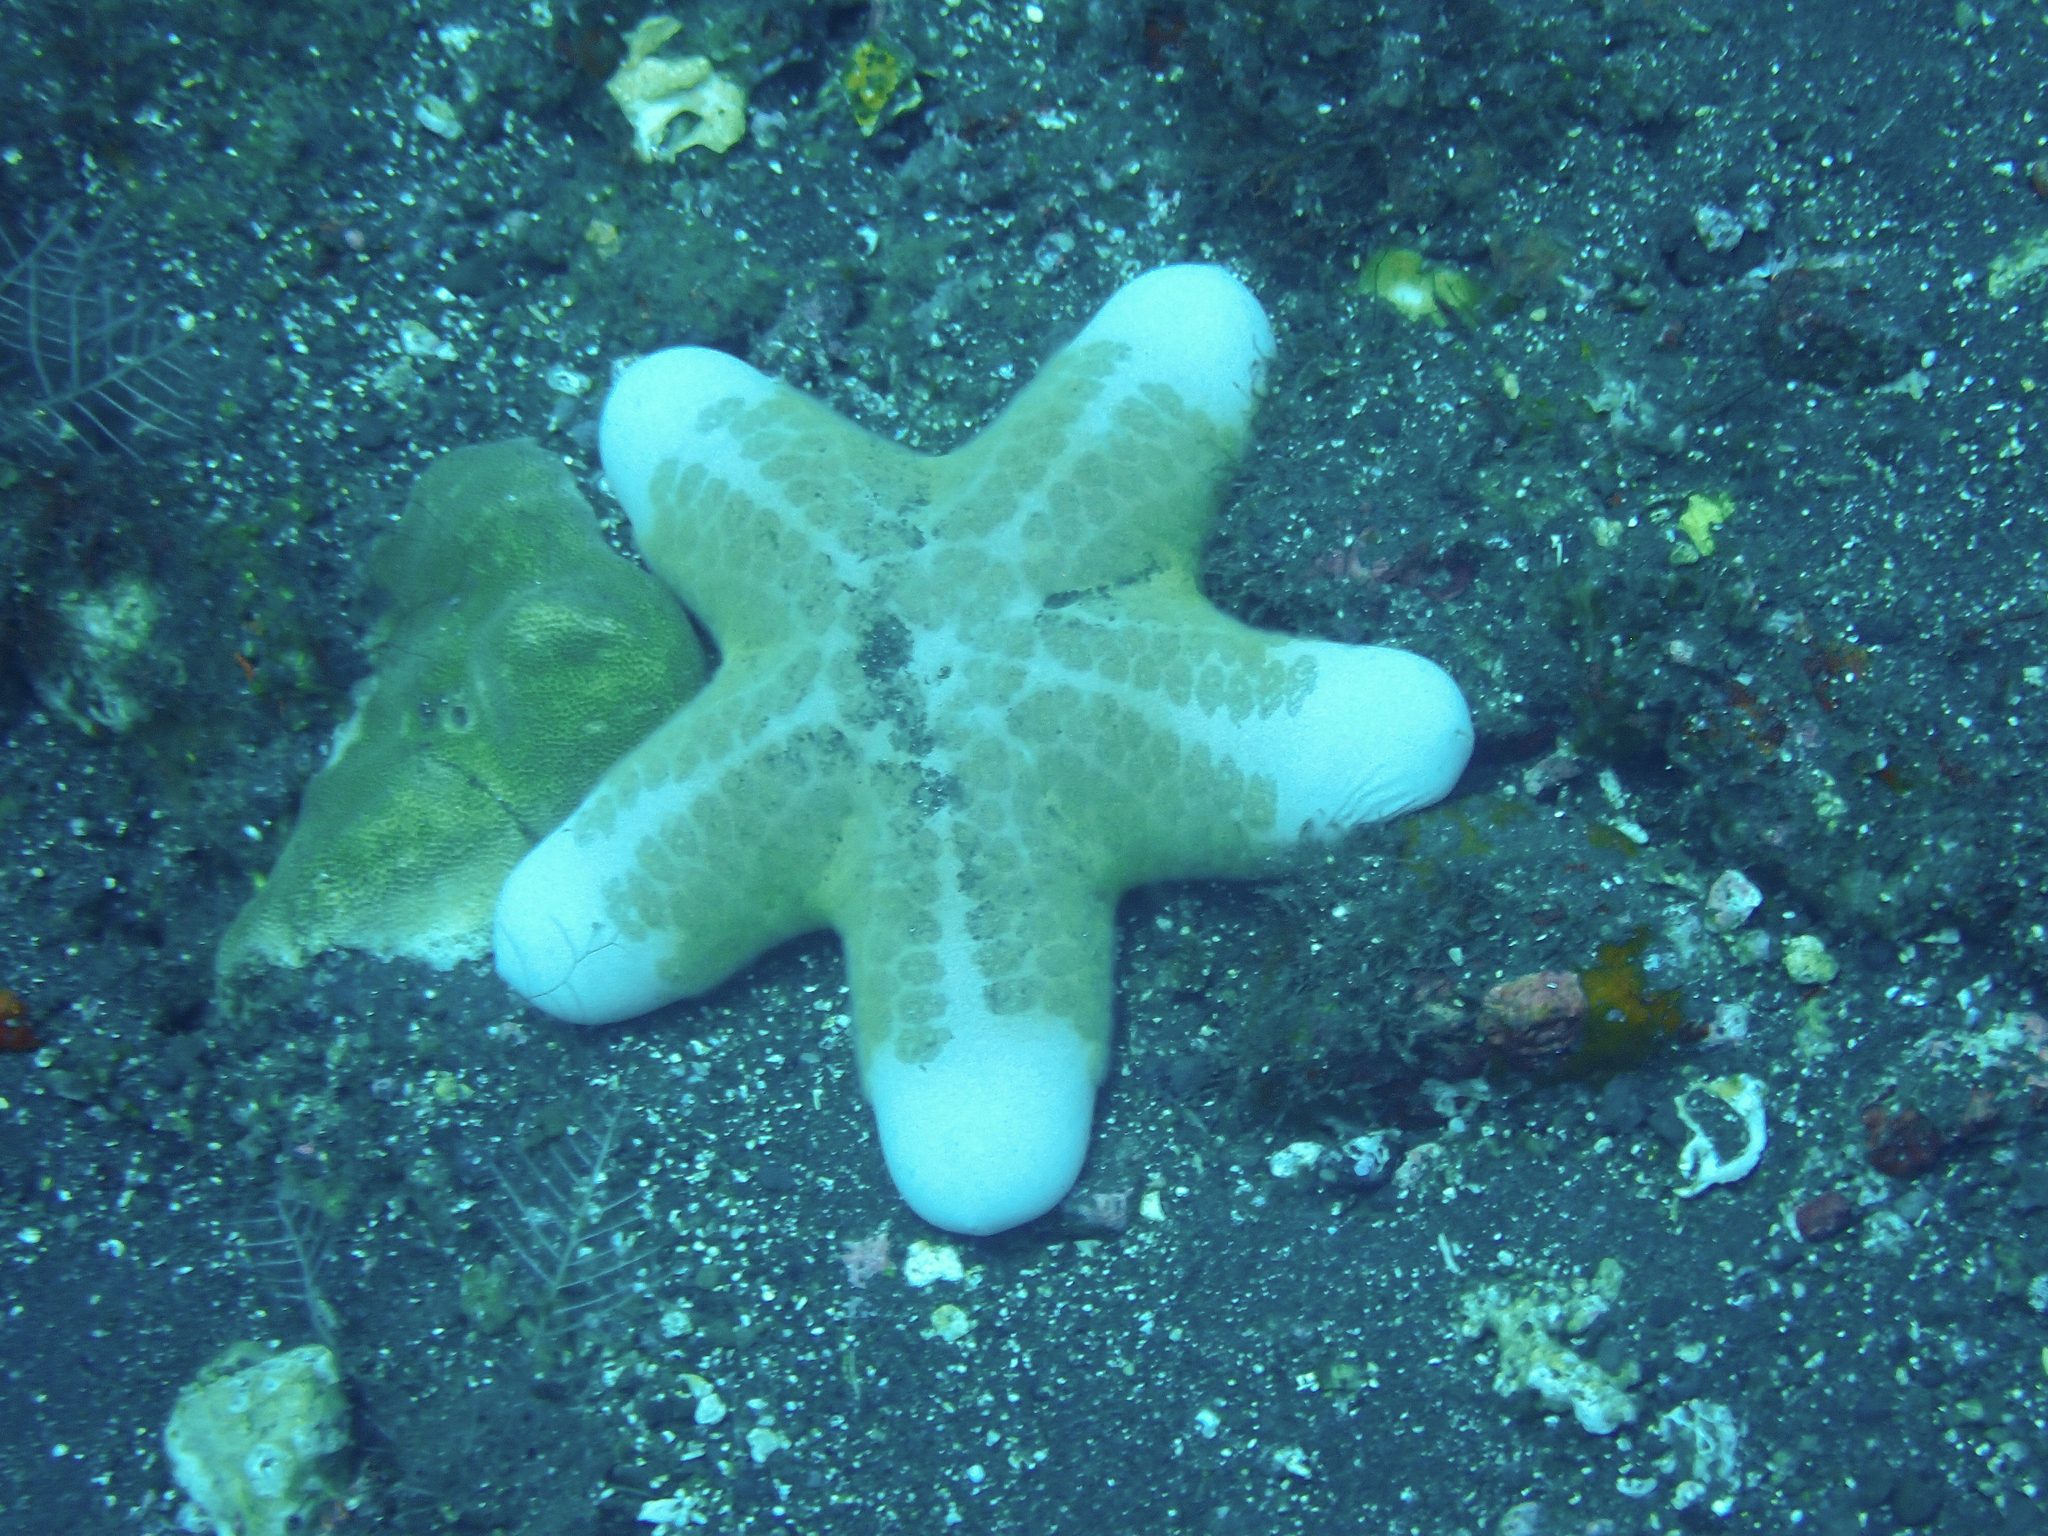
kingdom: Animalia
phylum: Echinodermata
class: Asteroidea
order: Valvatida
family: Oreasteridae
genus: Choriaster
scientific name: Choriaster granulatus
